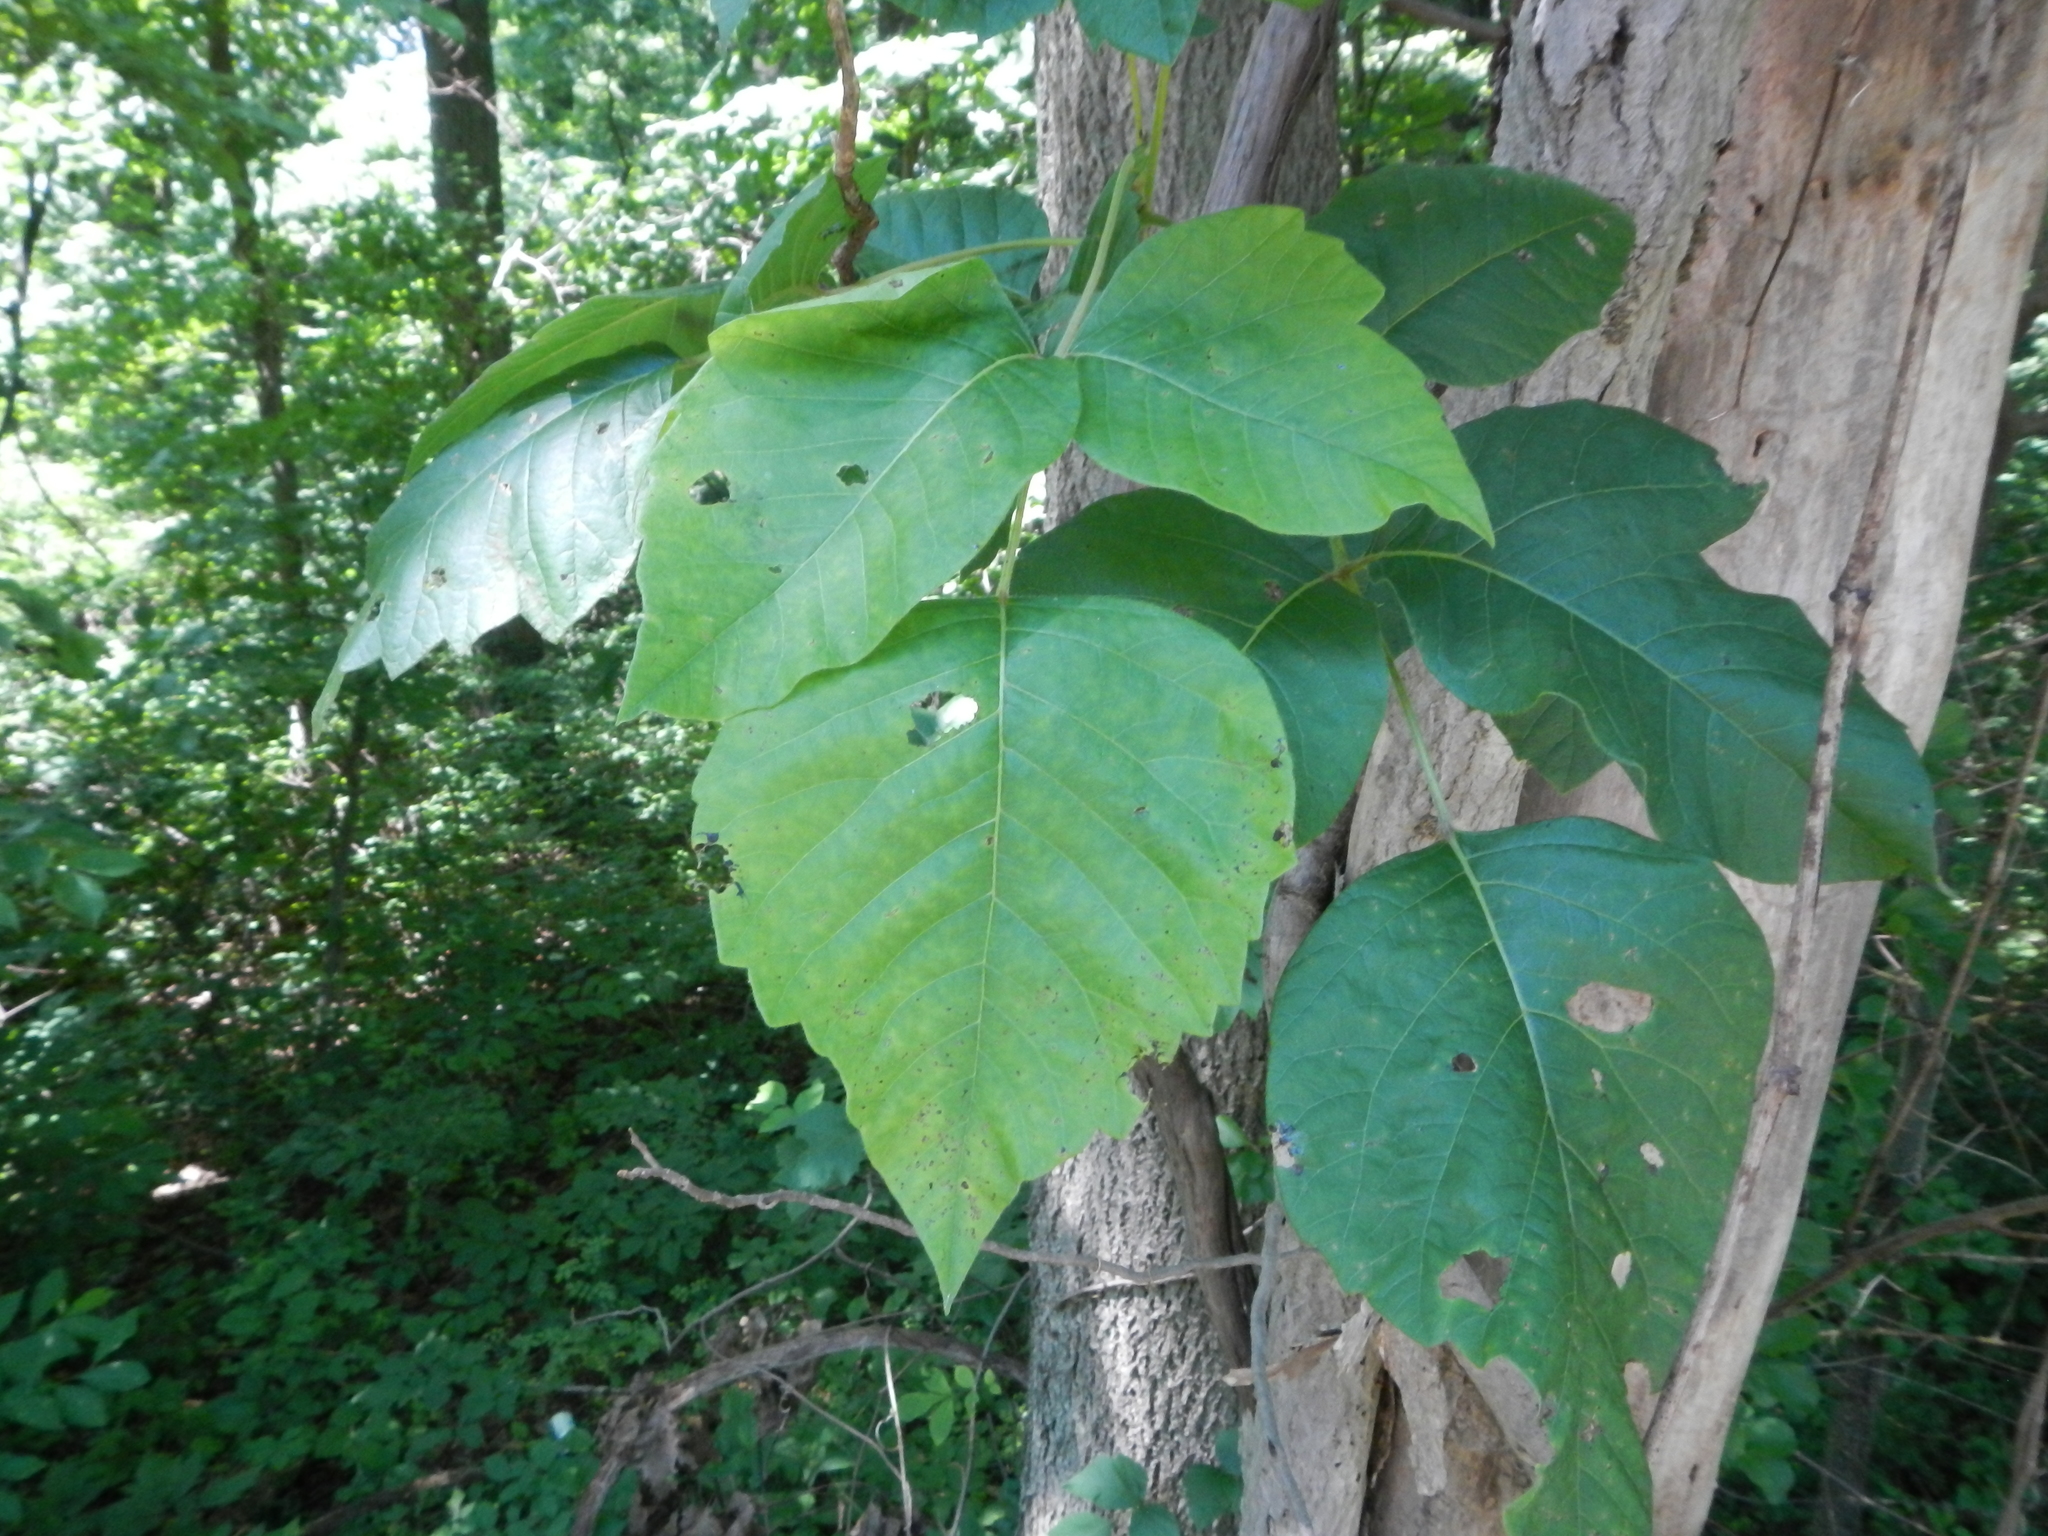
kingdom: Plantae
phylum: Tracheophyta
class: Magnoliopsida
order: Sapindales
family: Anacardiaceae
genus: Toxicodendron
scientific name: Toxicodendron radicans
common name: Poison ivy
